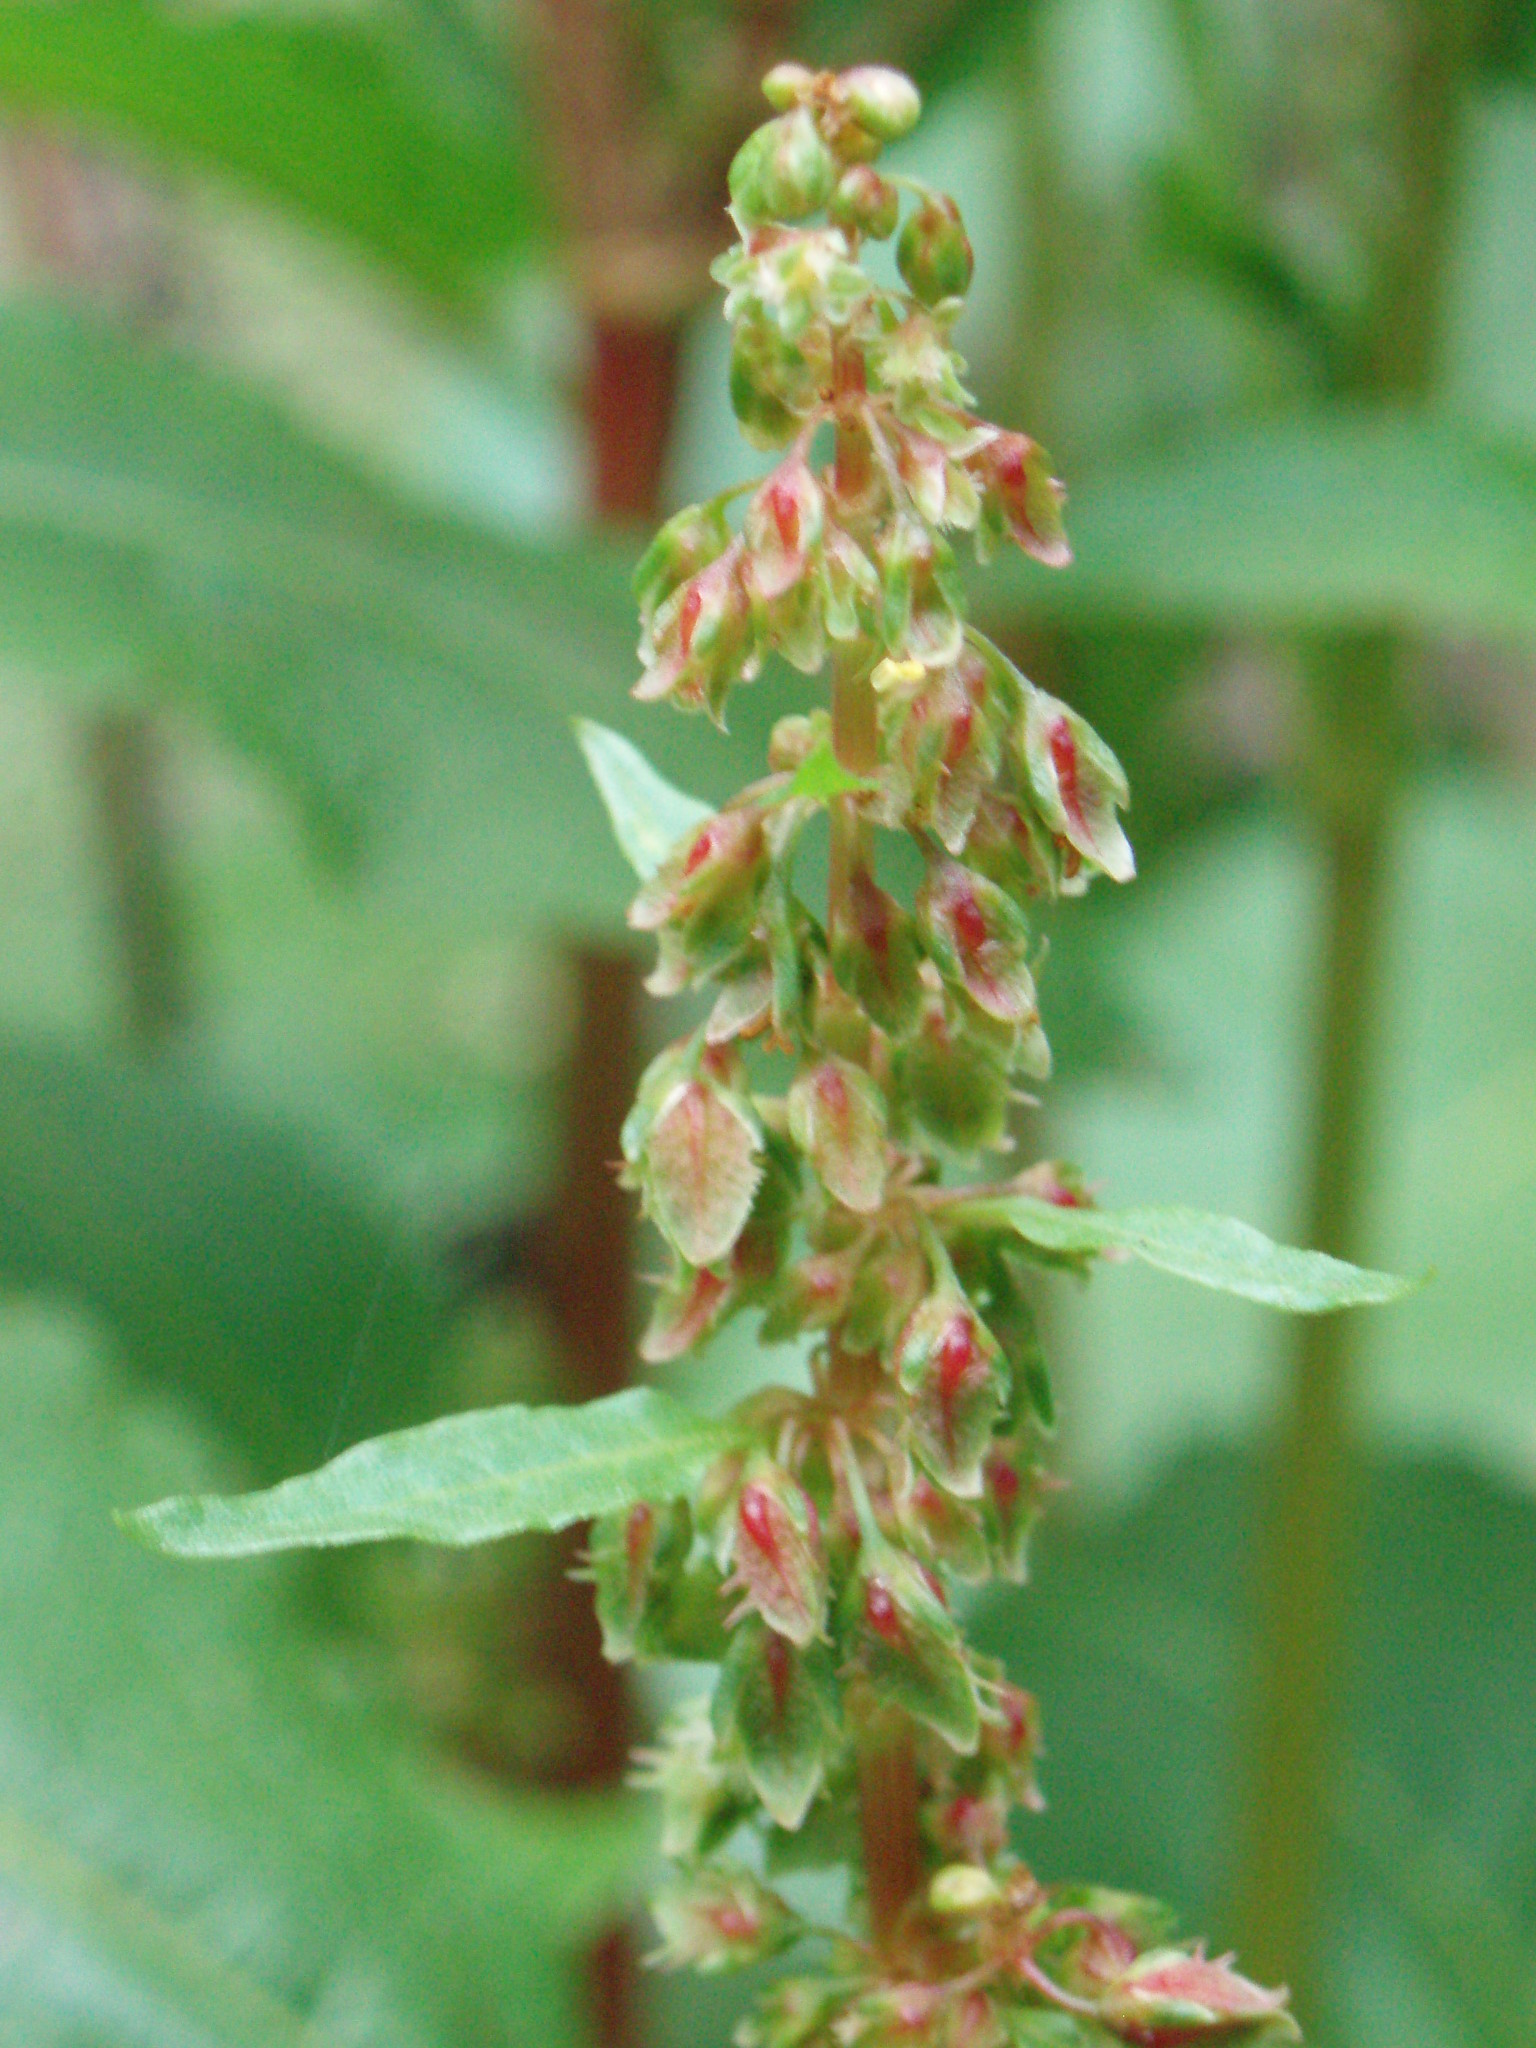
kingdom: Plantae
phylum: Tracheophyta
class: Magnoliopsida
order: Caryophyllales
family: Polygonaceae
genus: Rumex
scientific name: Rumex obtusifolius
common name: Bitter dock
